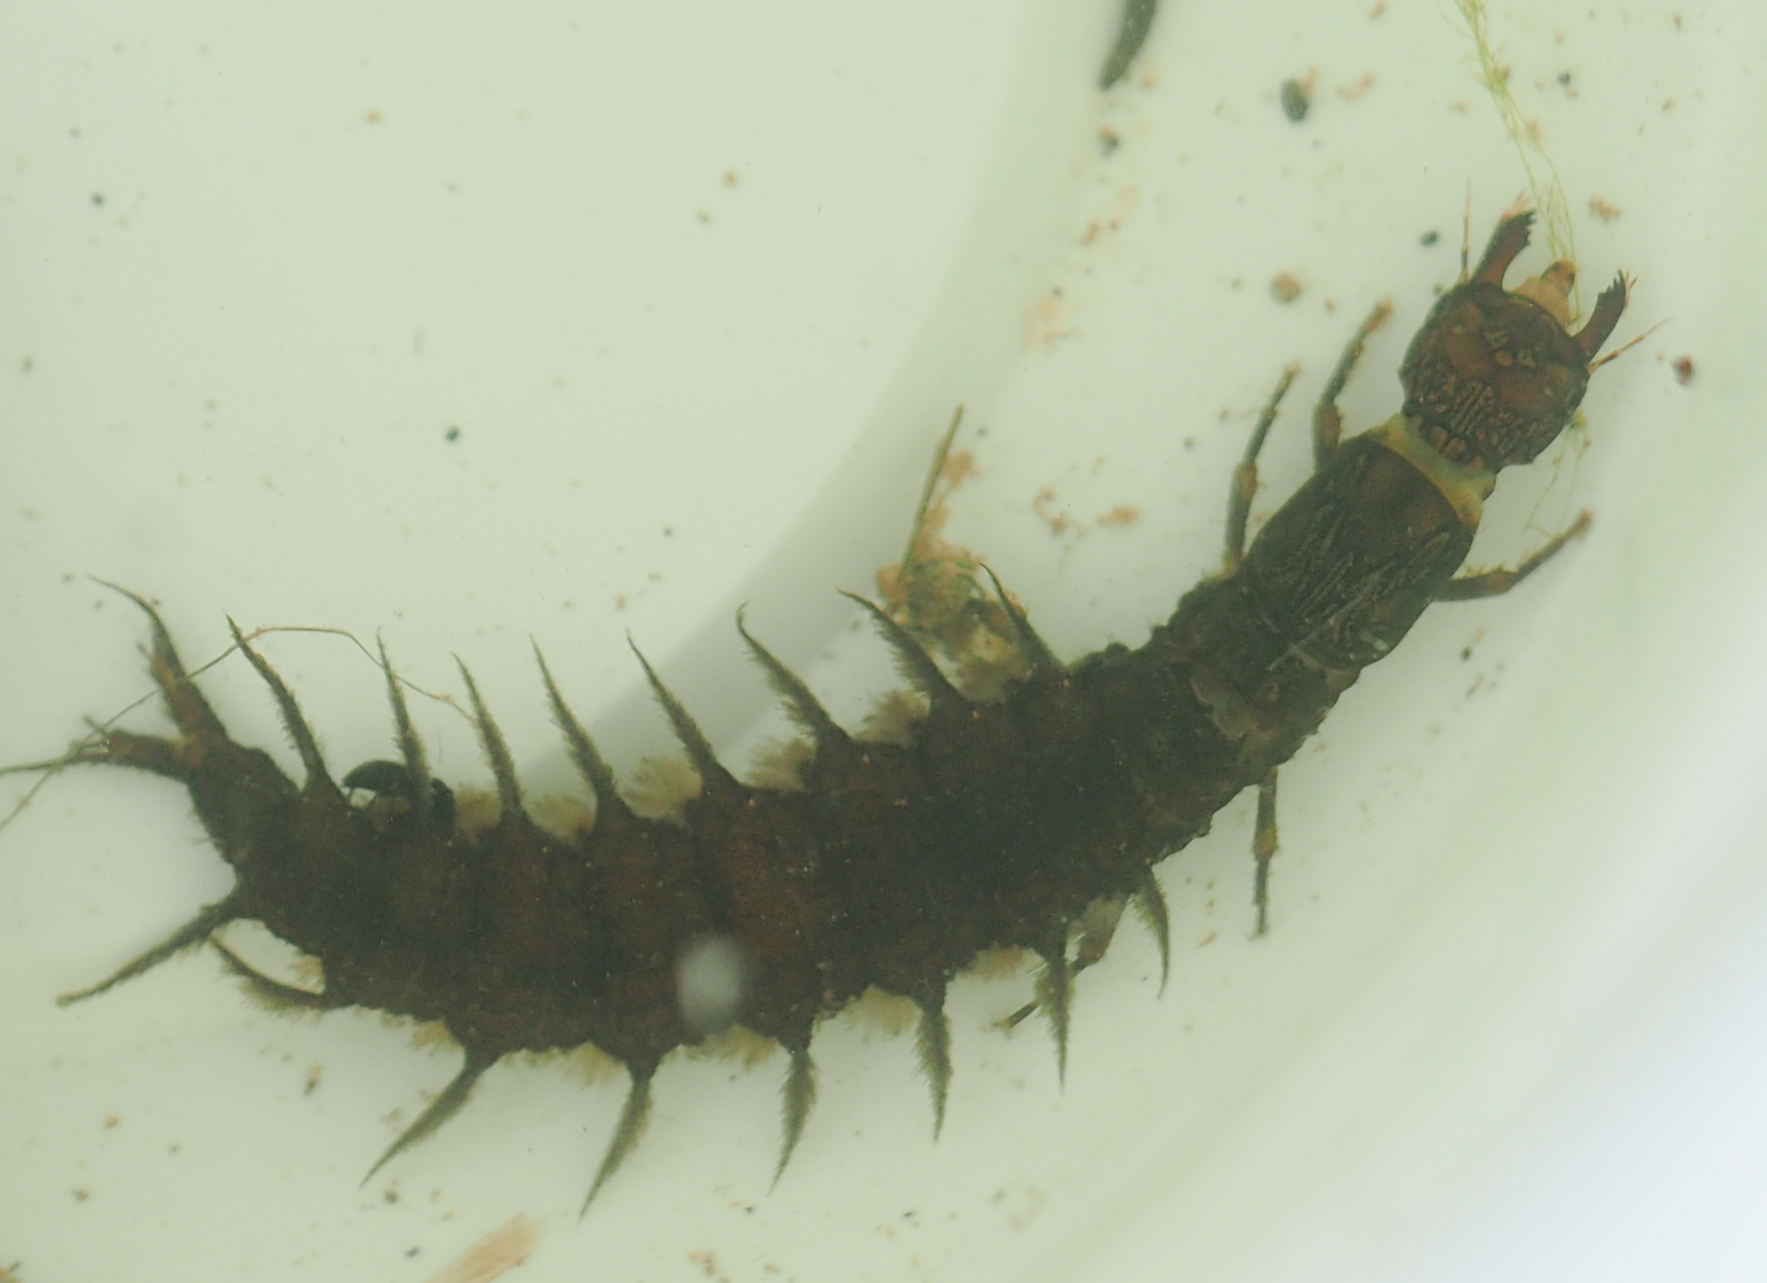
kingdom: Animalia
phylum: Arthropoda
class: Insecta
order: Megaloptera
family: Corydalidae
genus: Corydalus
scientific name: Corydalus cornutus
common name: Dobsonfly
